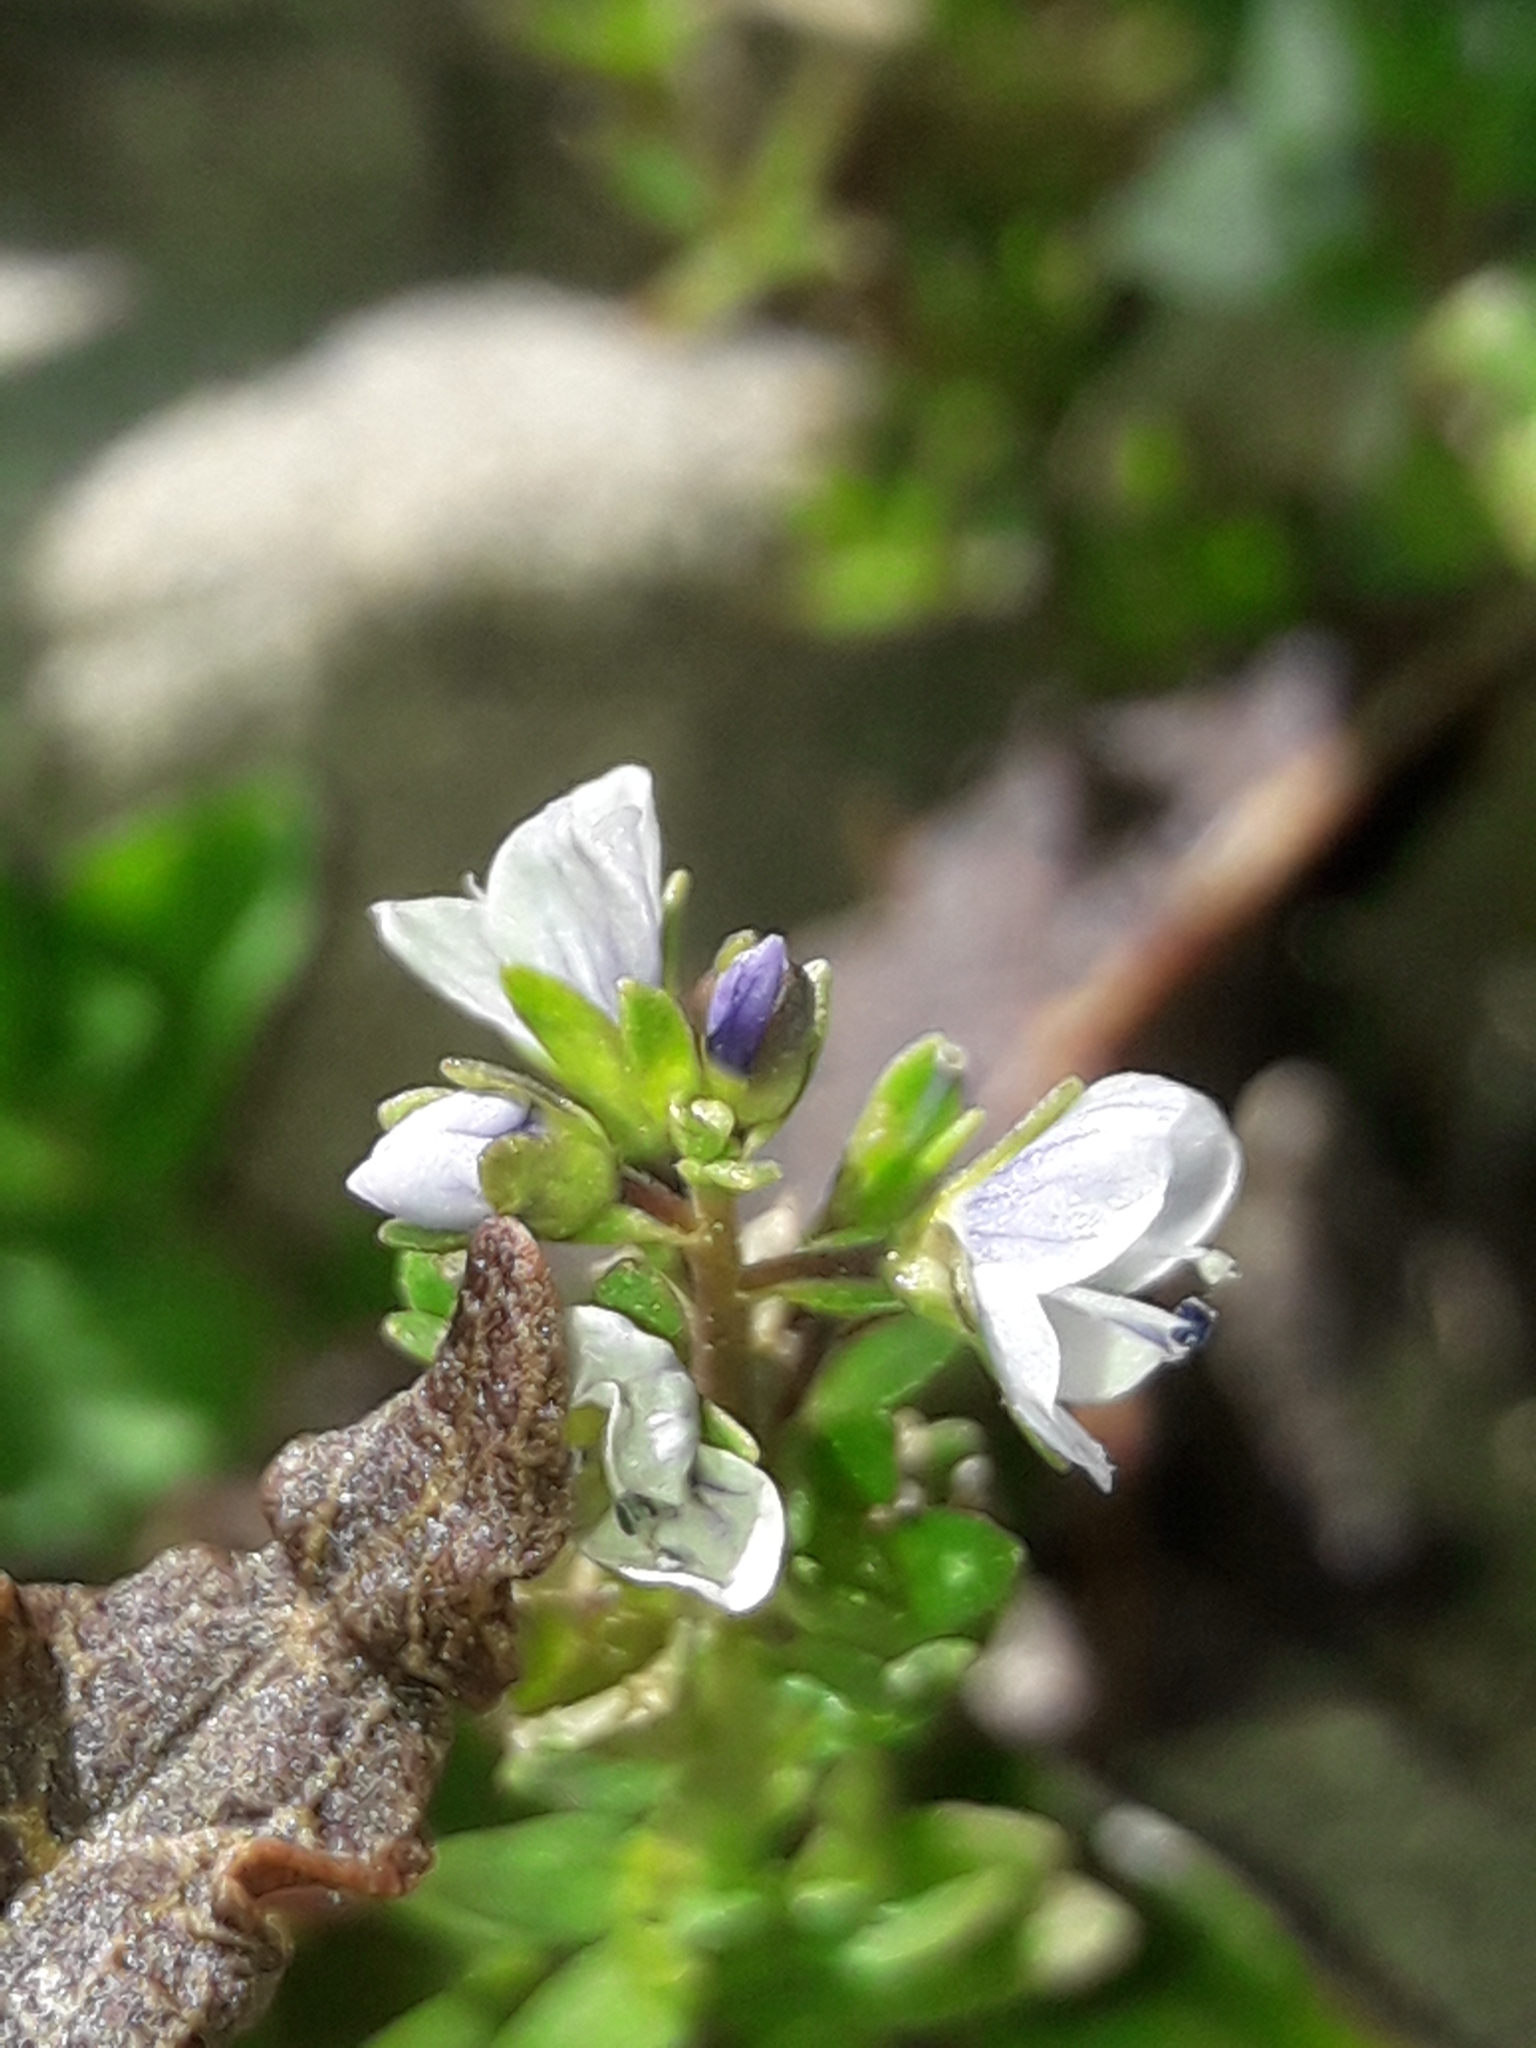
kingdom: Plantae
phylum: Tracheophyta
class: Magnoliopsida
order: Lamiales
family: Plantaginaceae
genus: Veronica
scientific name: Veronica serpyllifolia
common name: Thyme-leaved speedwell
